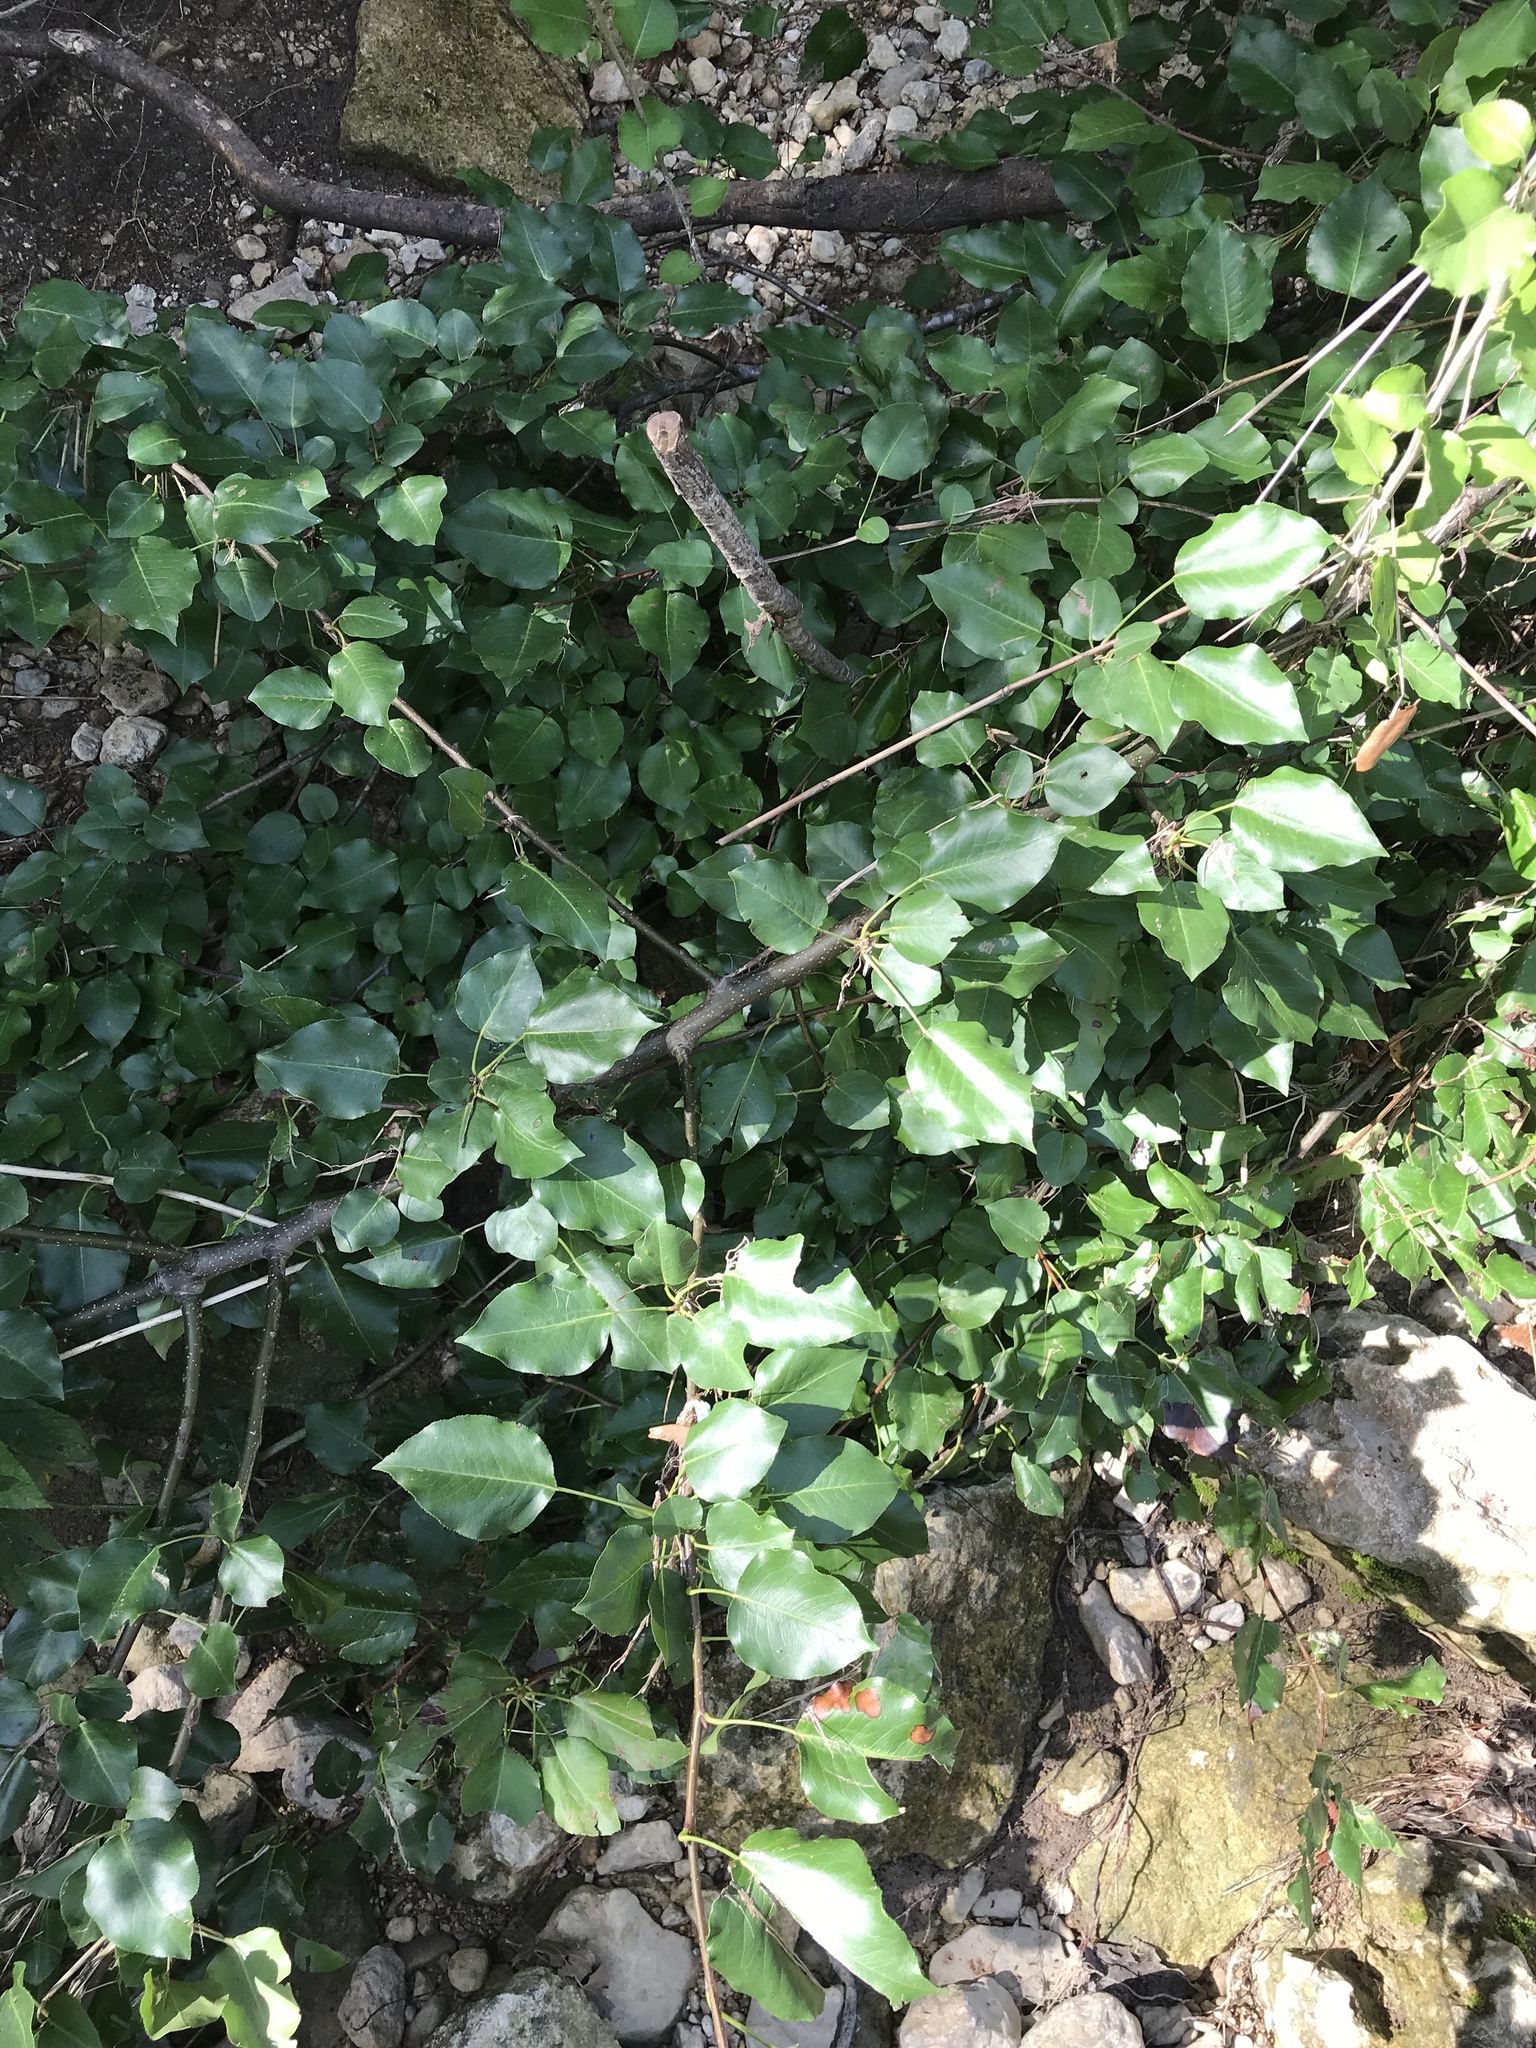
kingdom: Plantae
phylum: Tracheophyta
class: Magnoliopsida
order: Rosales
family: Rosaceae
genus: Pyrus
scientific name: Pyrus calleryana
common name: Callery pear
